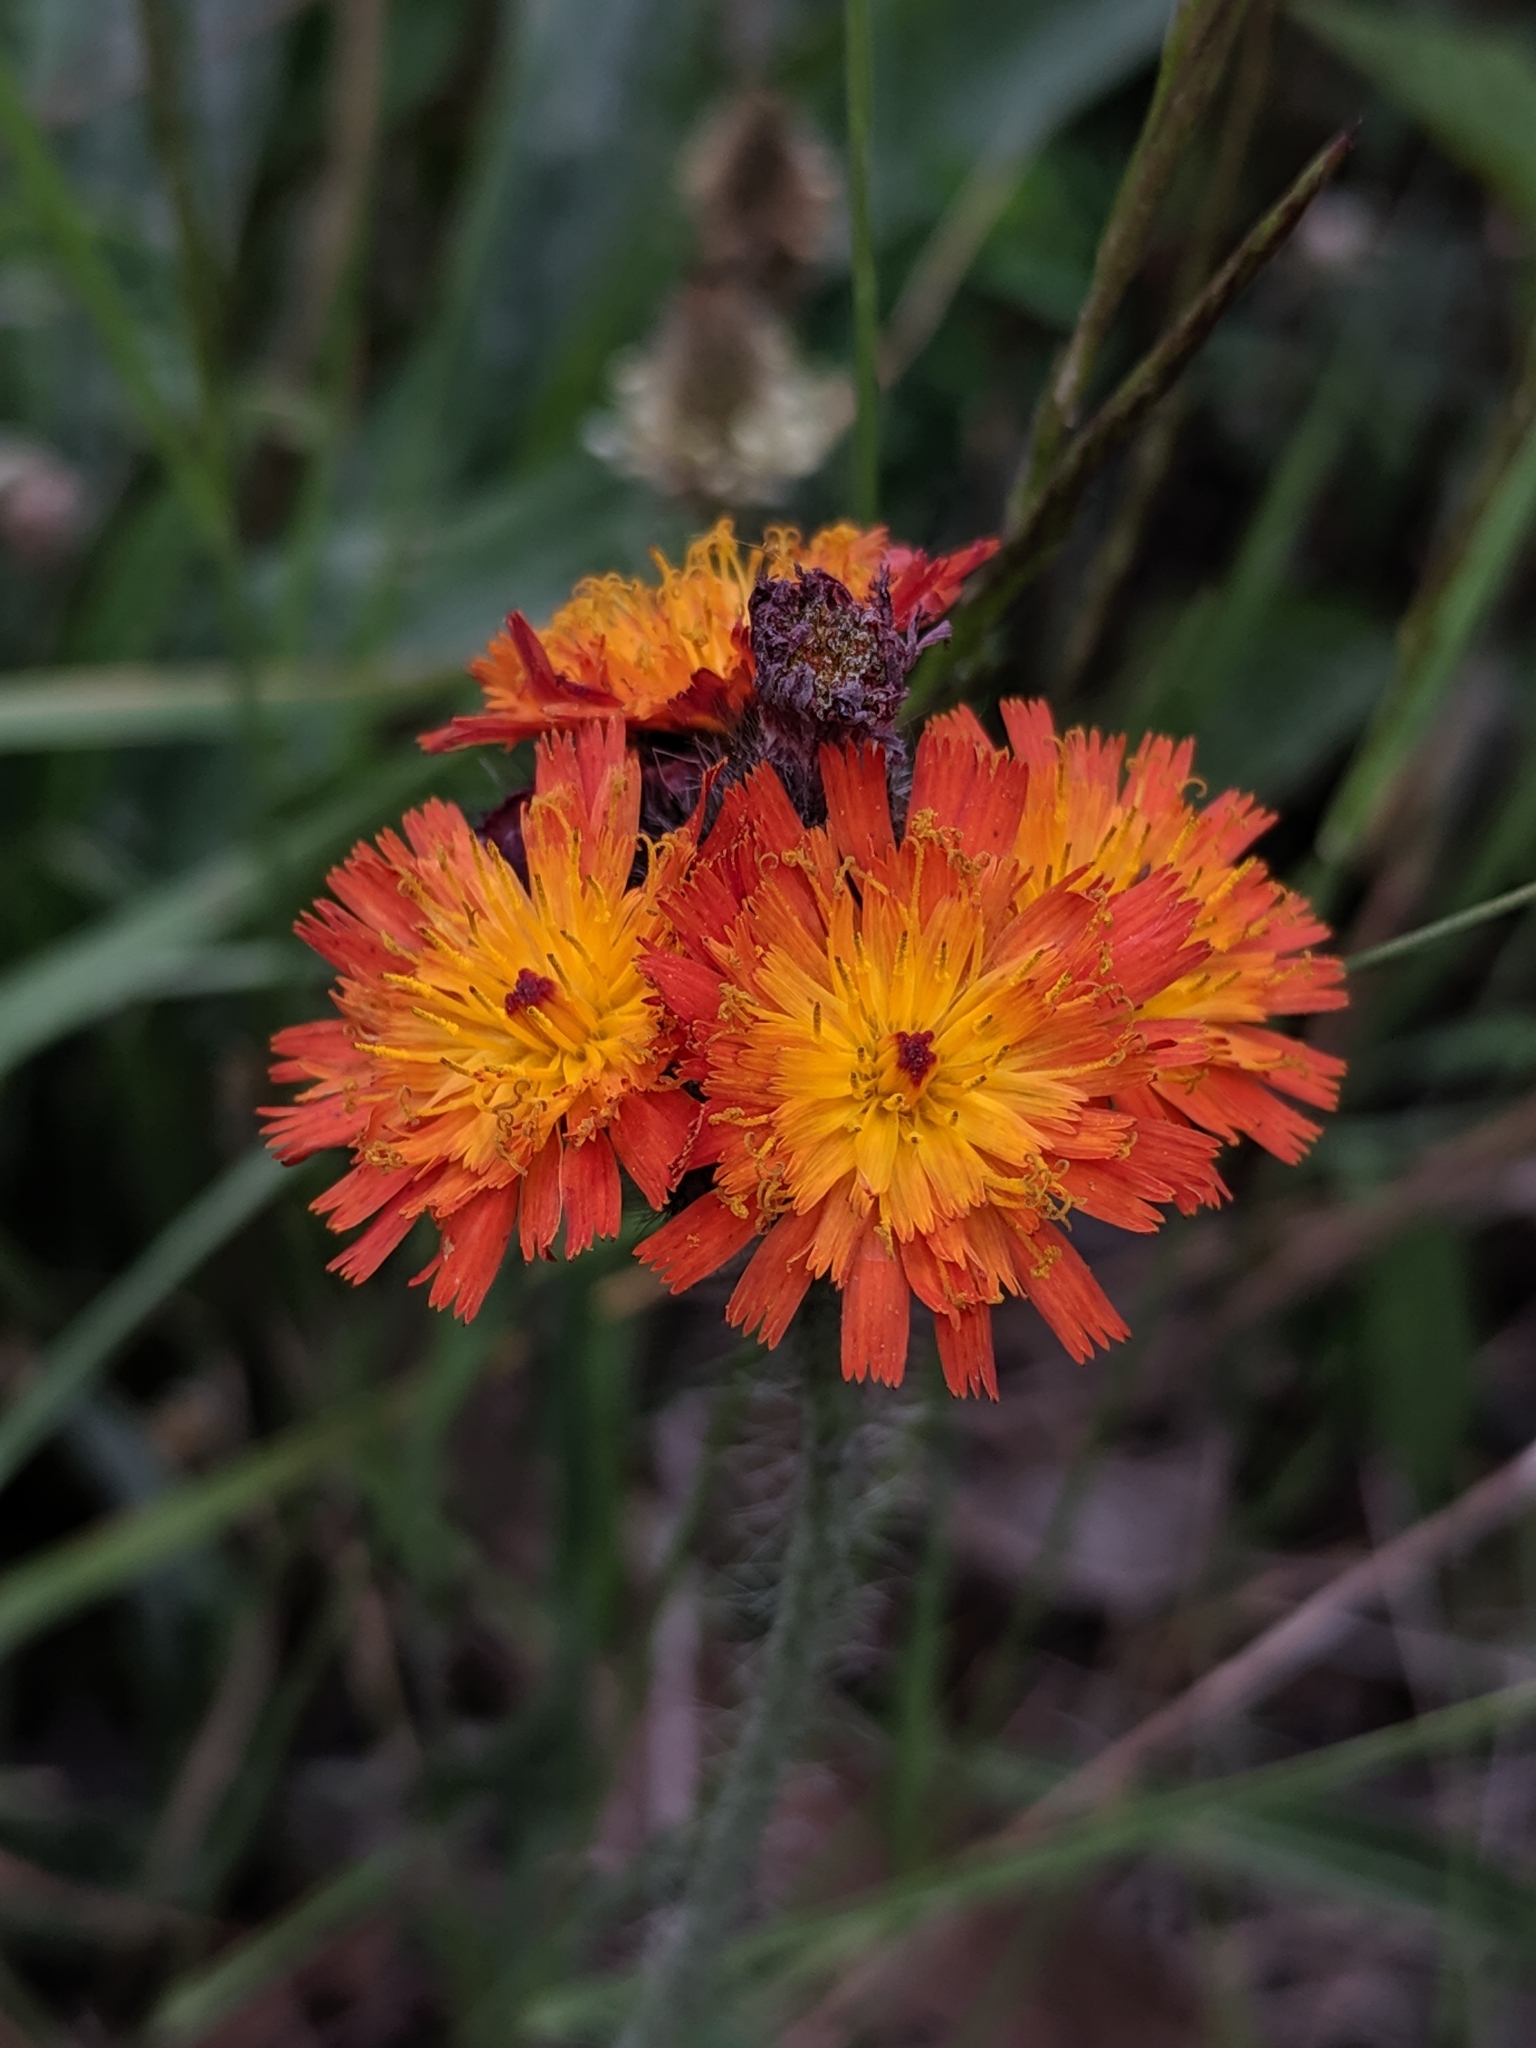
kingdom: Plantae
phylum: Tracheophyta
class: Magnoliopsida
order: Asterales
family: Asteraceae
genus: Pilosella
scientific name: Pilosella aurantiaca
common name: Fox-and-cubs
